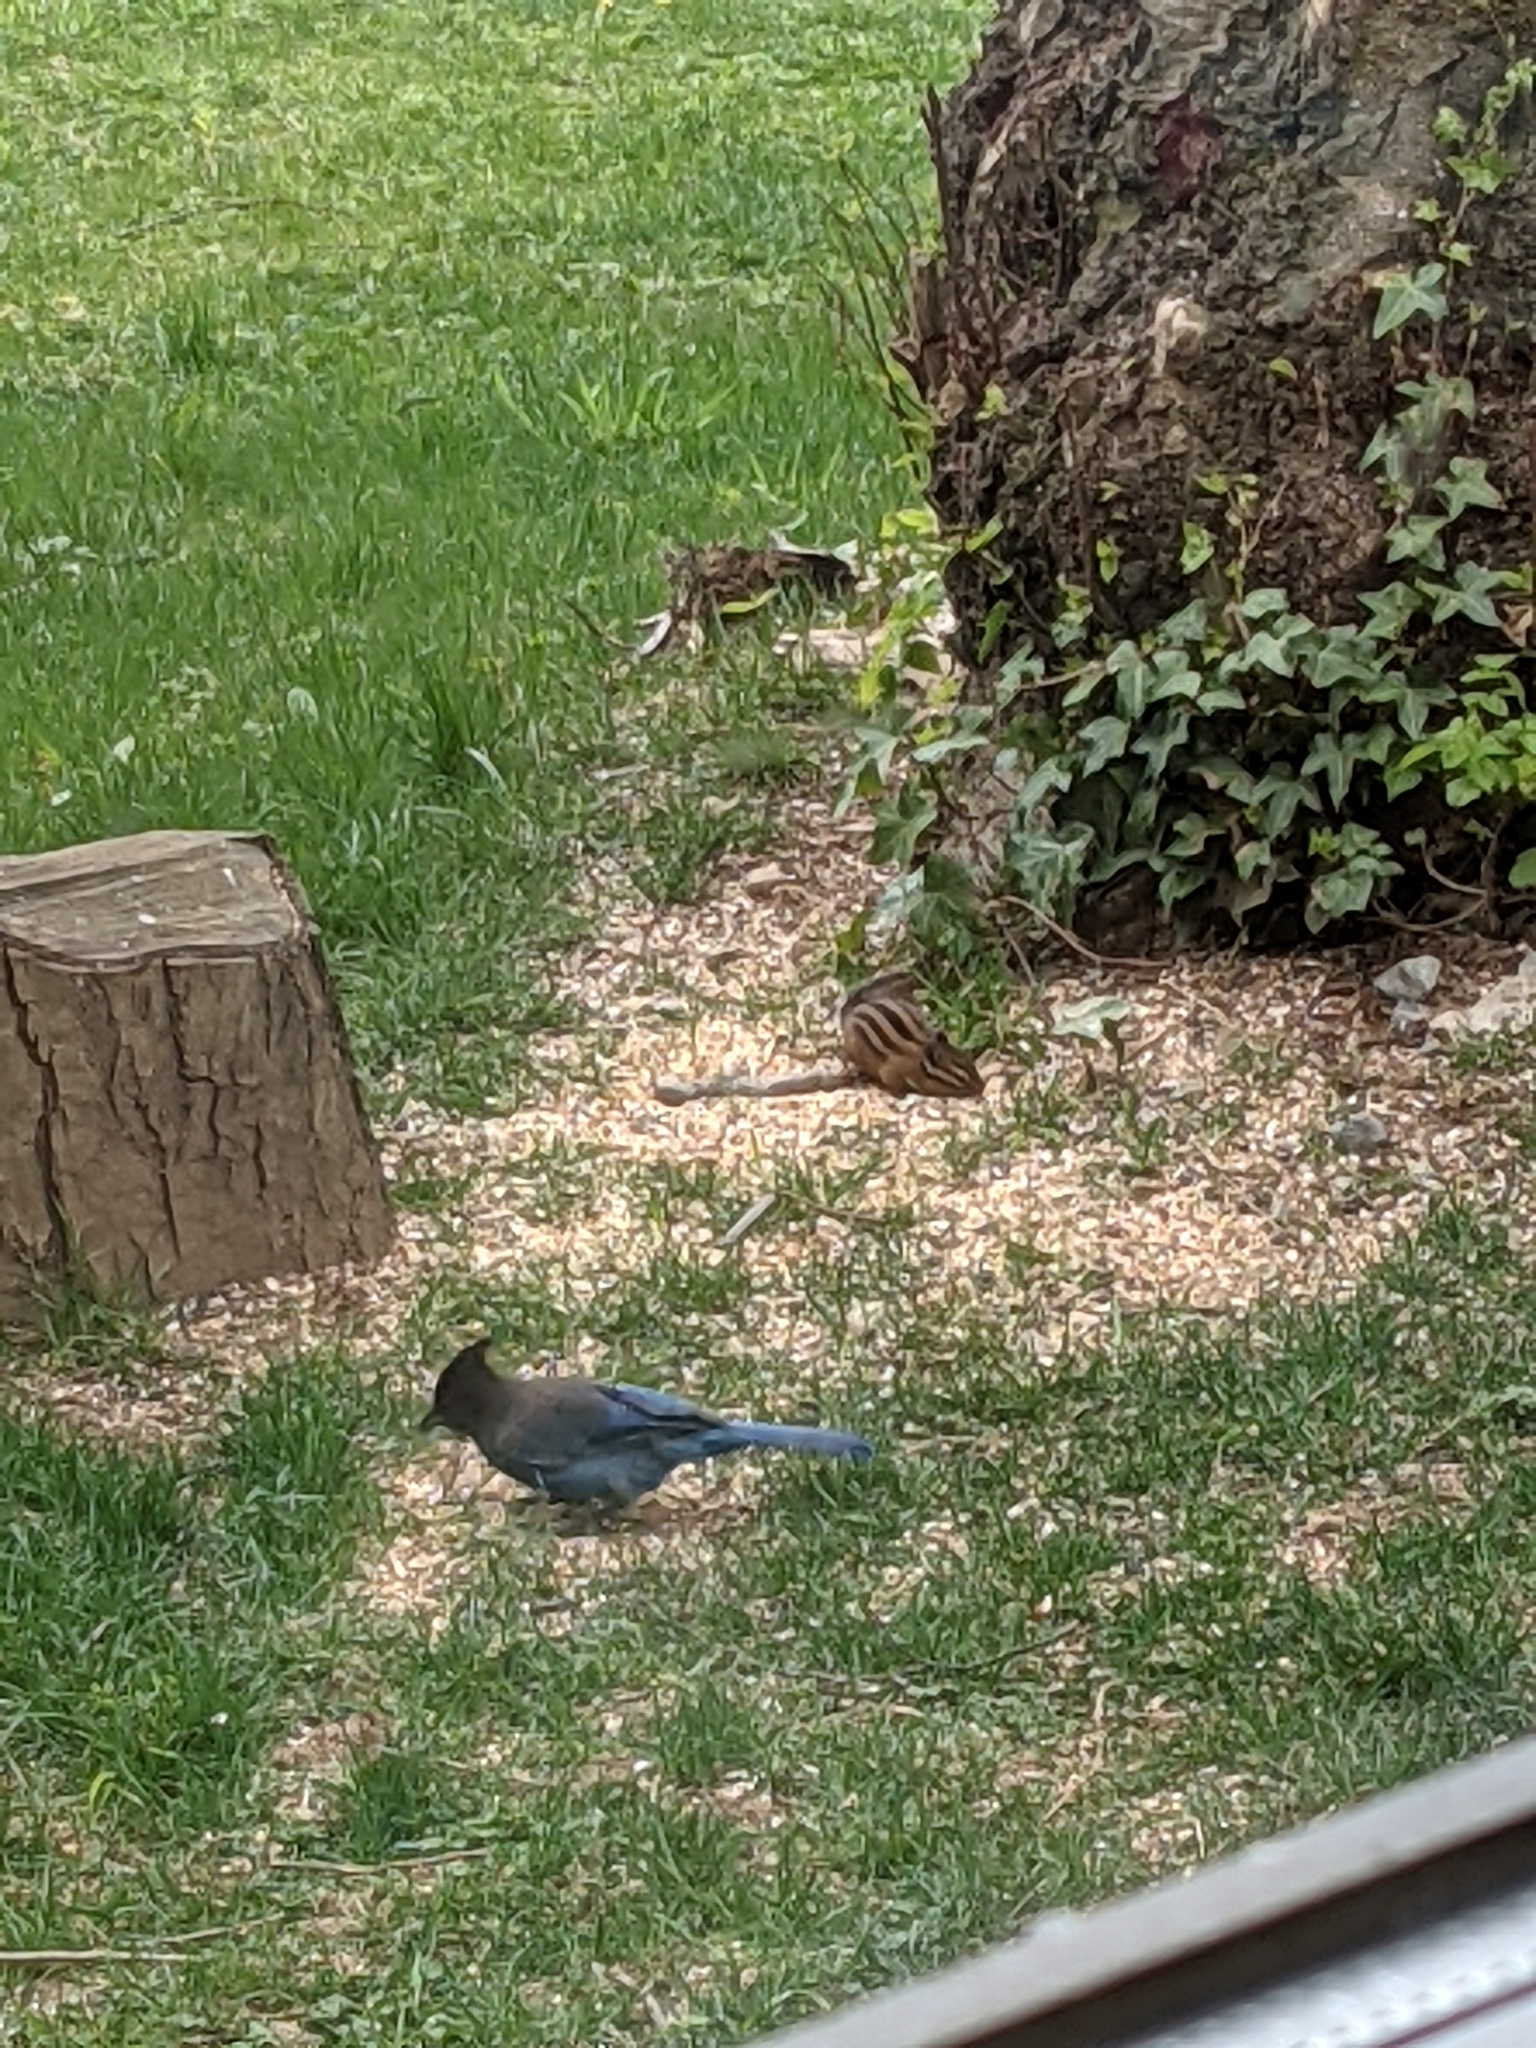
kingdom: Animalia
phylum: Chordata
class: Aves
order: Passeriformes
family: Corvidae
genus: Cyanocitta
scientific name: Cyanocitta stelleri
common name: Steller's jay
